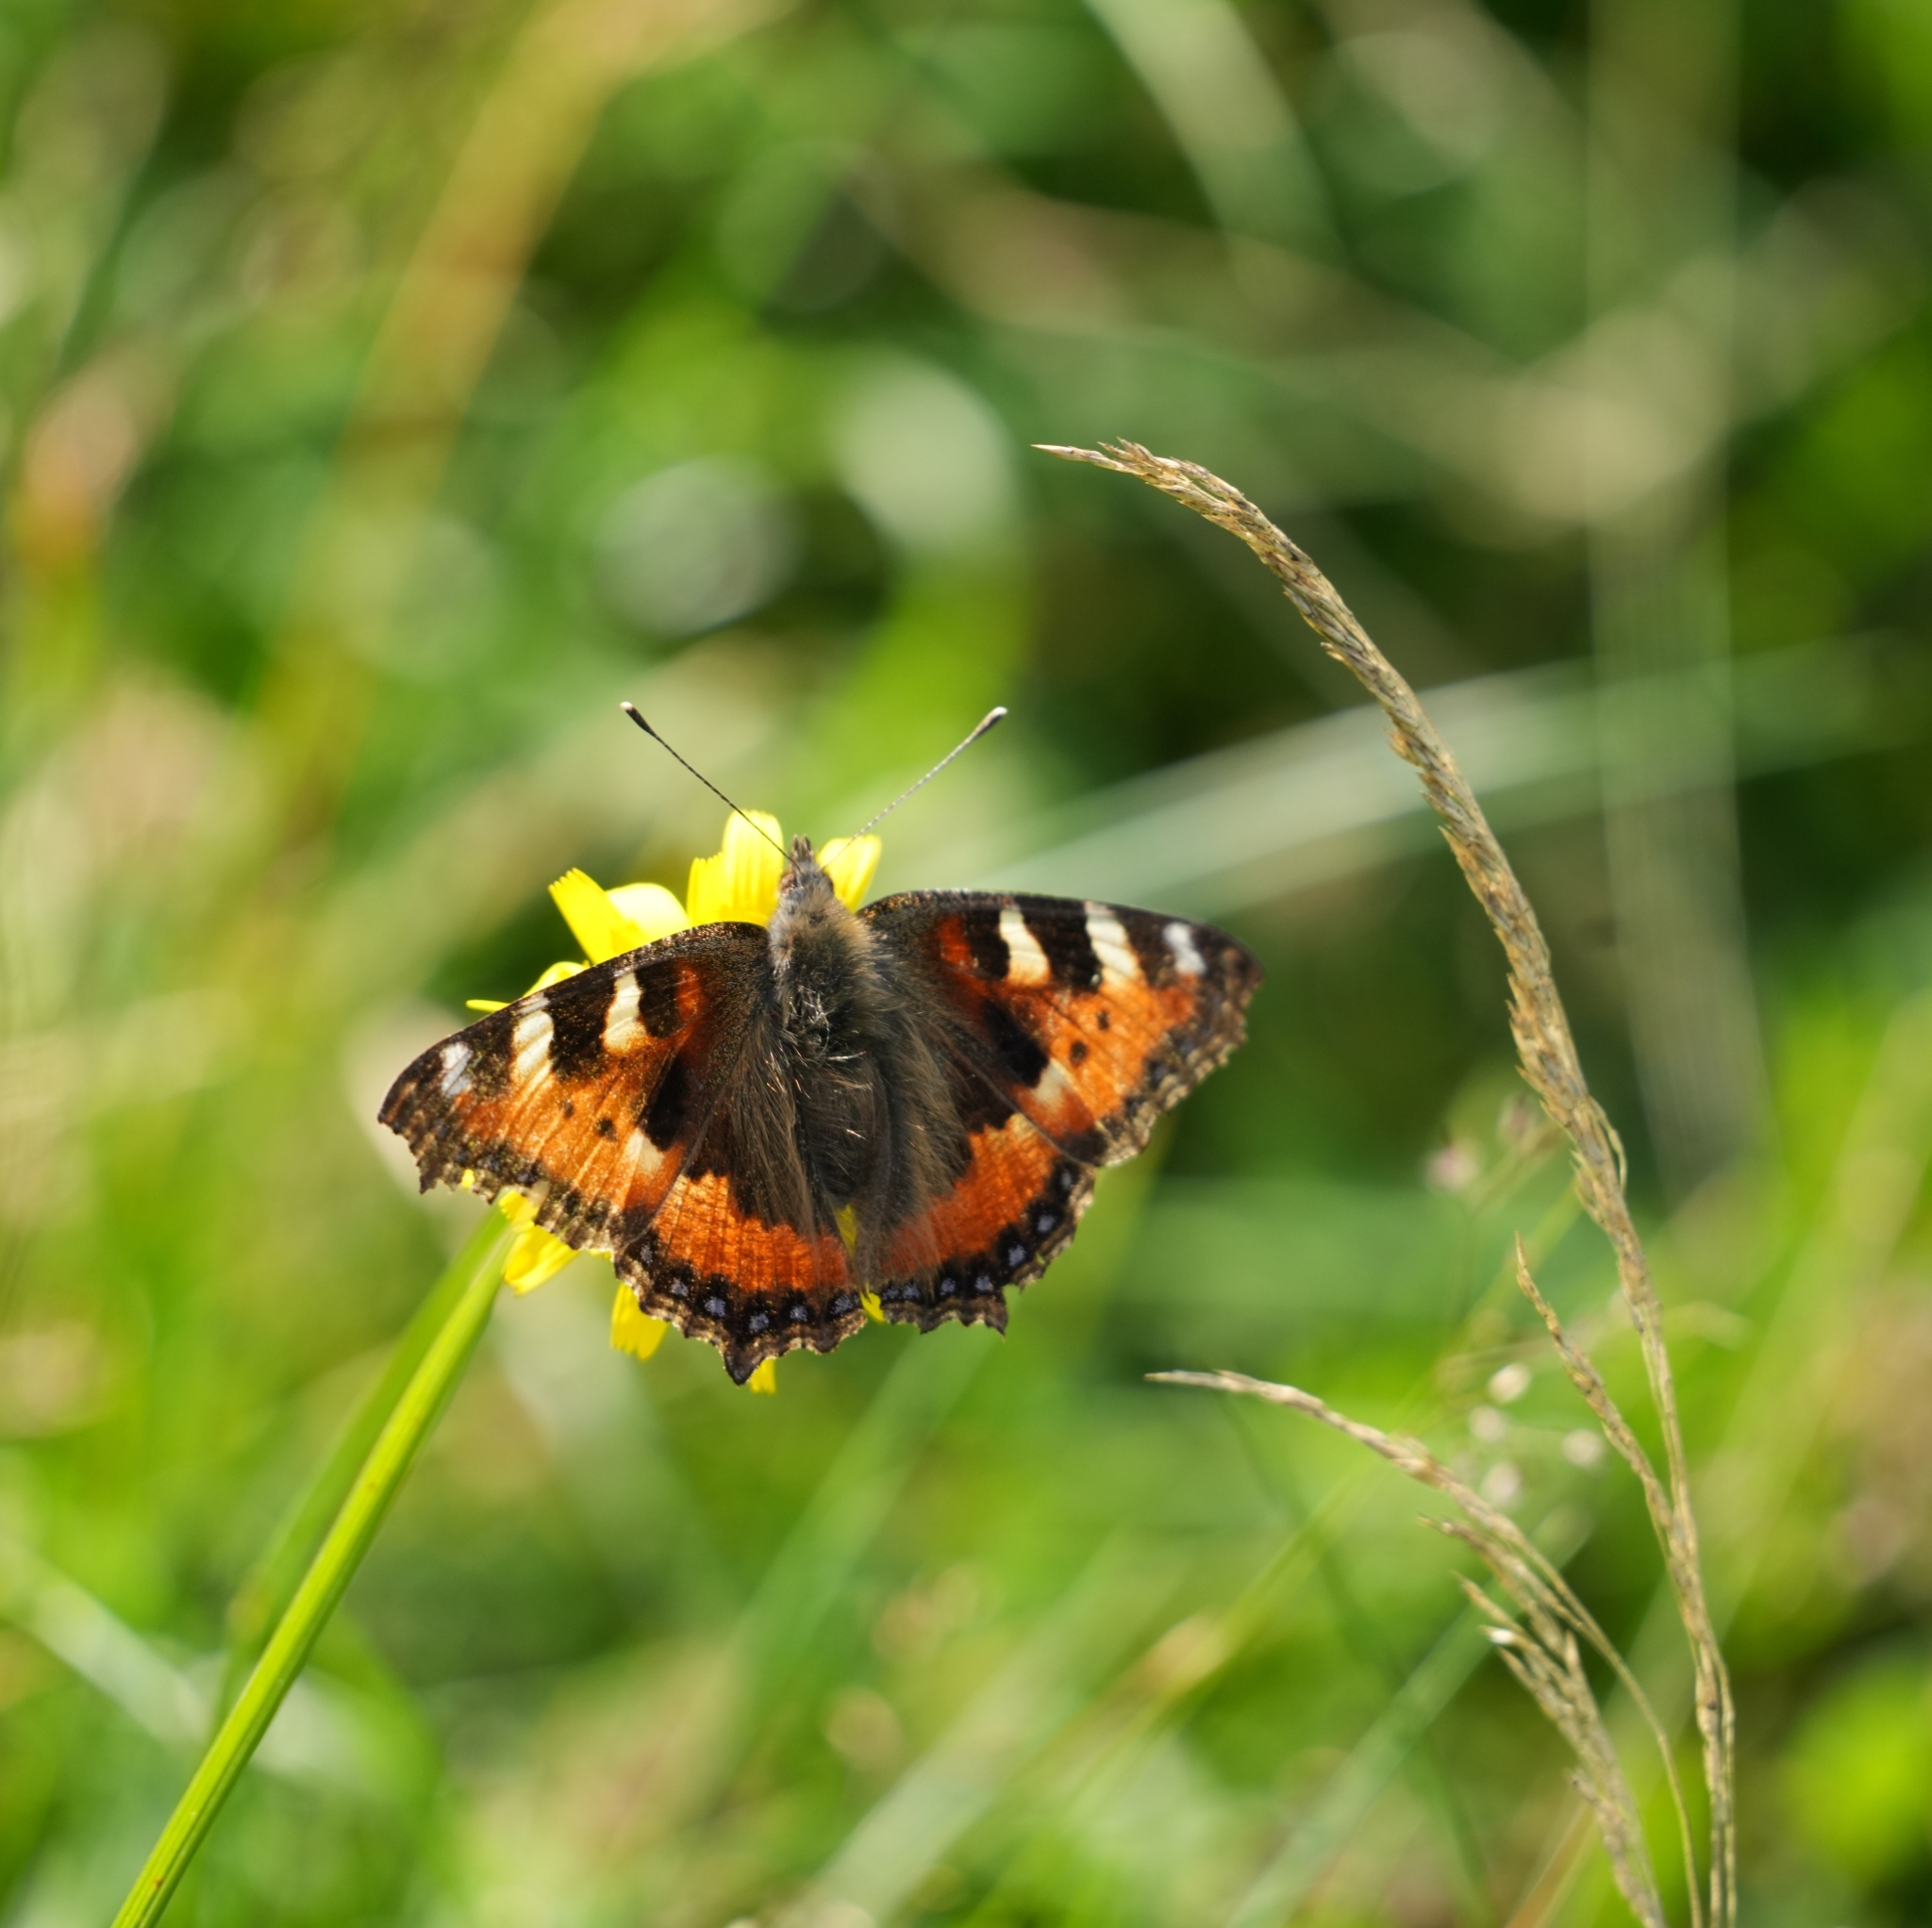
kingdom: Animalia
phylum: Arthropoda
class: Insecta
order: Lepidoptera
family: Nymphalidae
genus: Aglais
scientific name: Aglais urticae
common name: Small tortoiseshell
